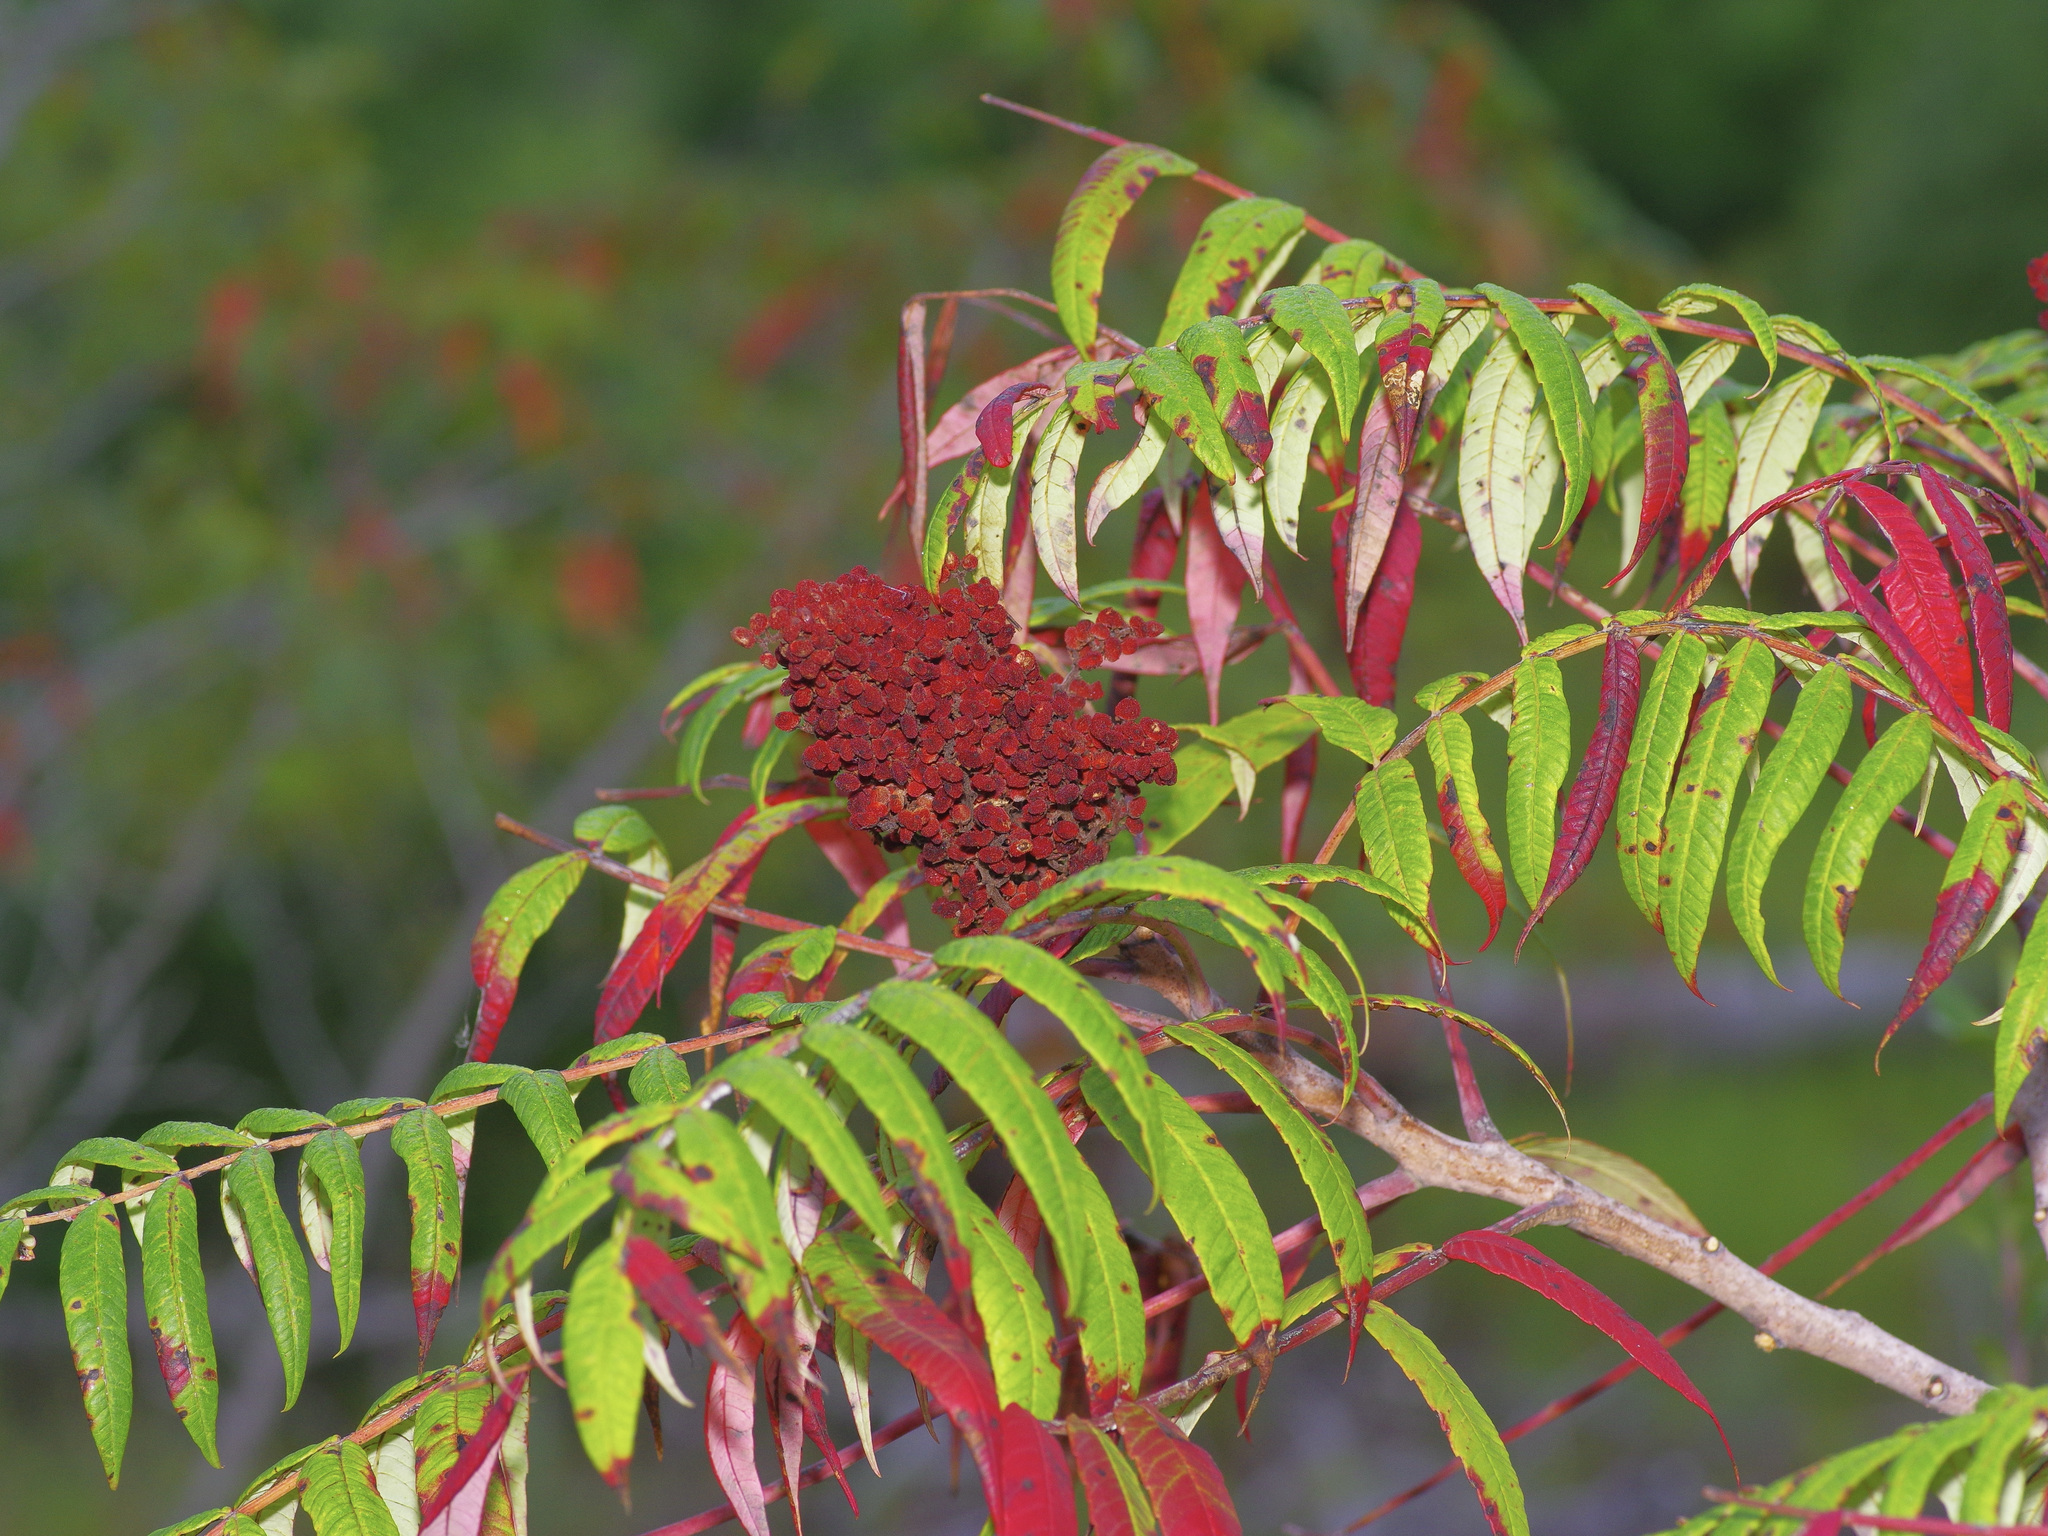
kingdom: Plantae
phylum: Tracheophyta
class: Magnoliopsida
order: Sapindales
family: Anacardiaceae
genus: Rhus
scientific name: Rhus glabra
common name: Scarlet sumac
